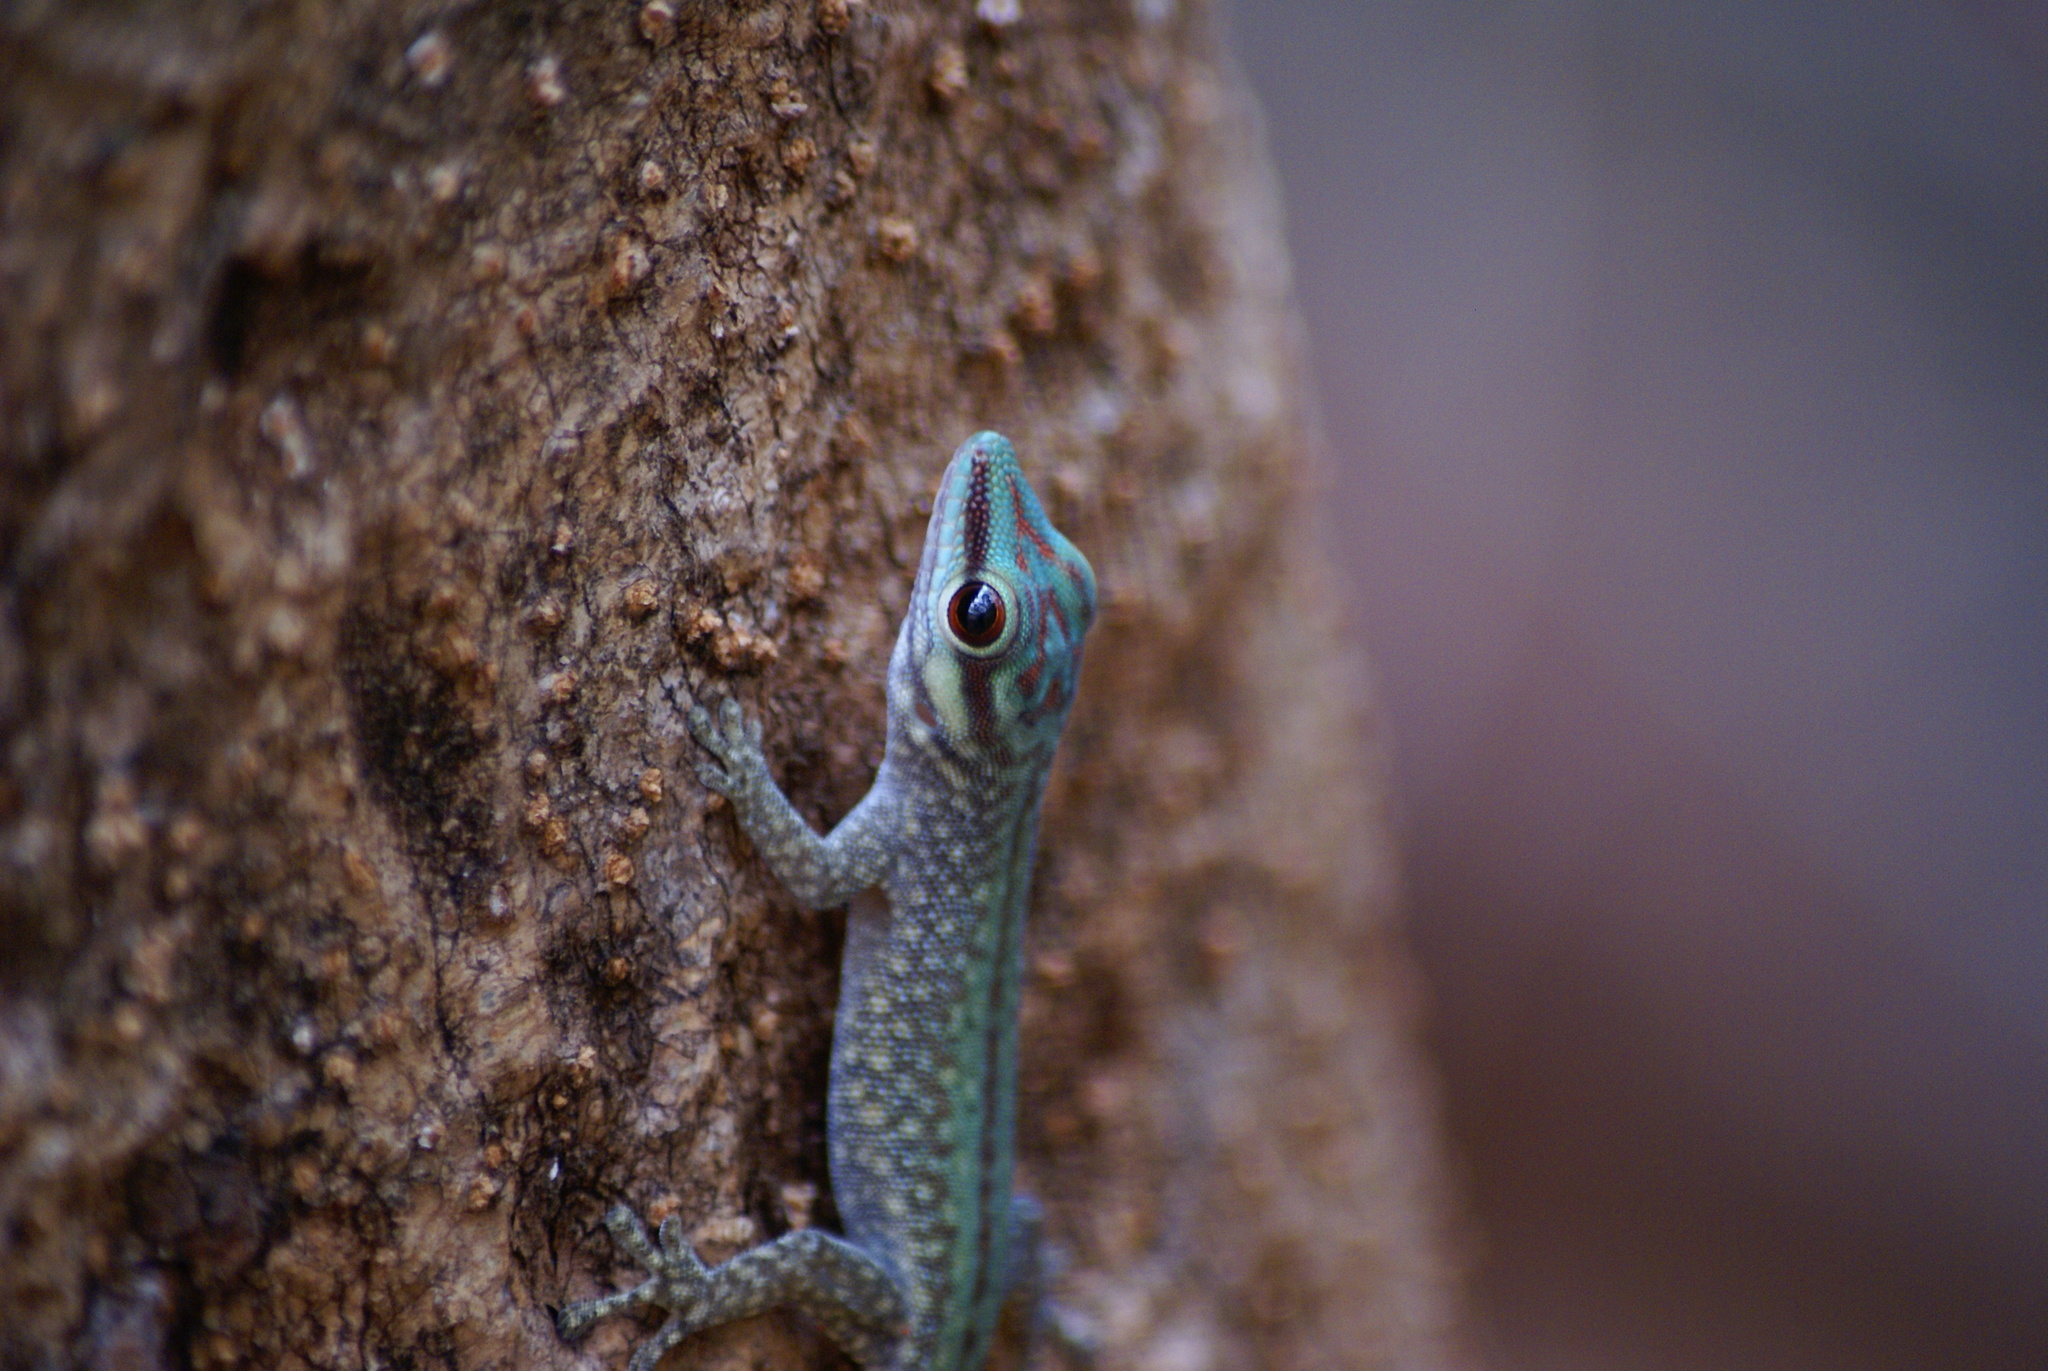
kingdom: Animalia
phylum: Chordata
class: Squamata
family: Gekkonidae
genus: Phelsuma
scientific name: Phelsuma abbotti
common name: Aldabra day gecko
